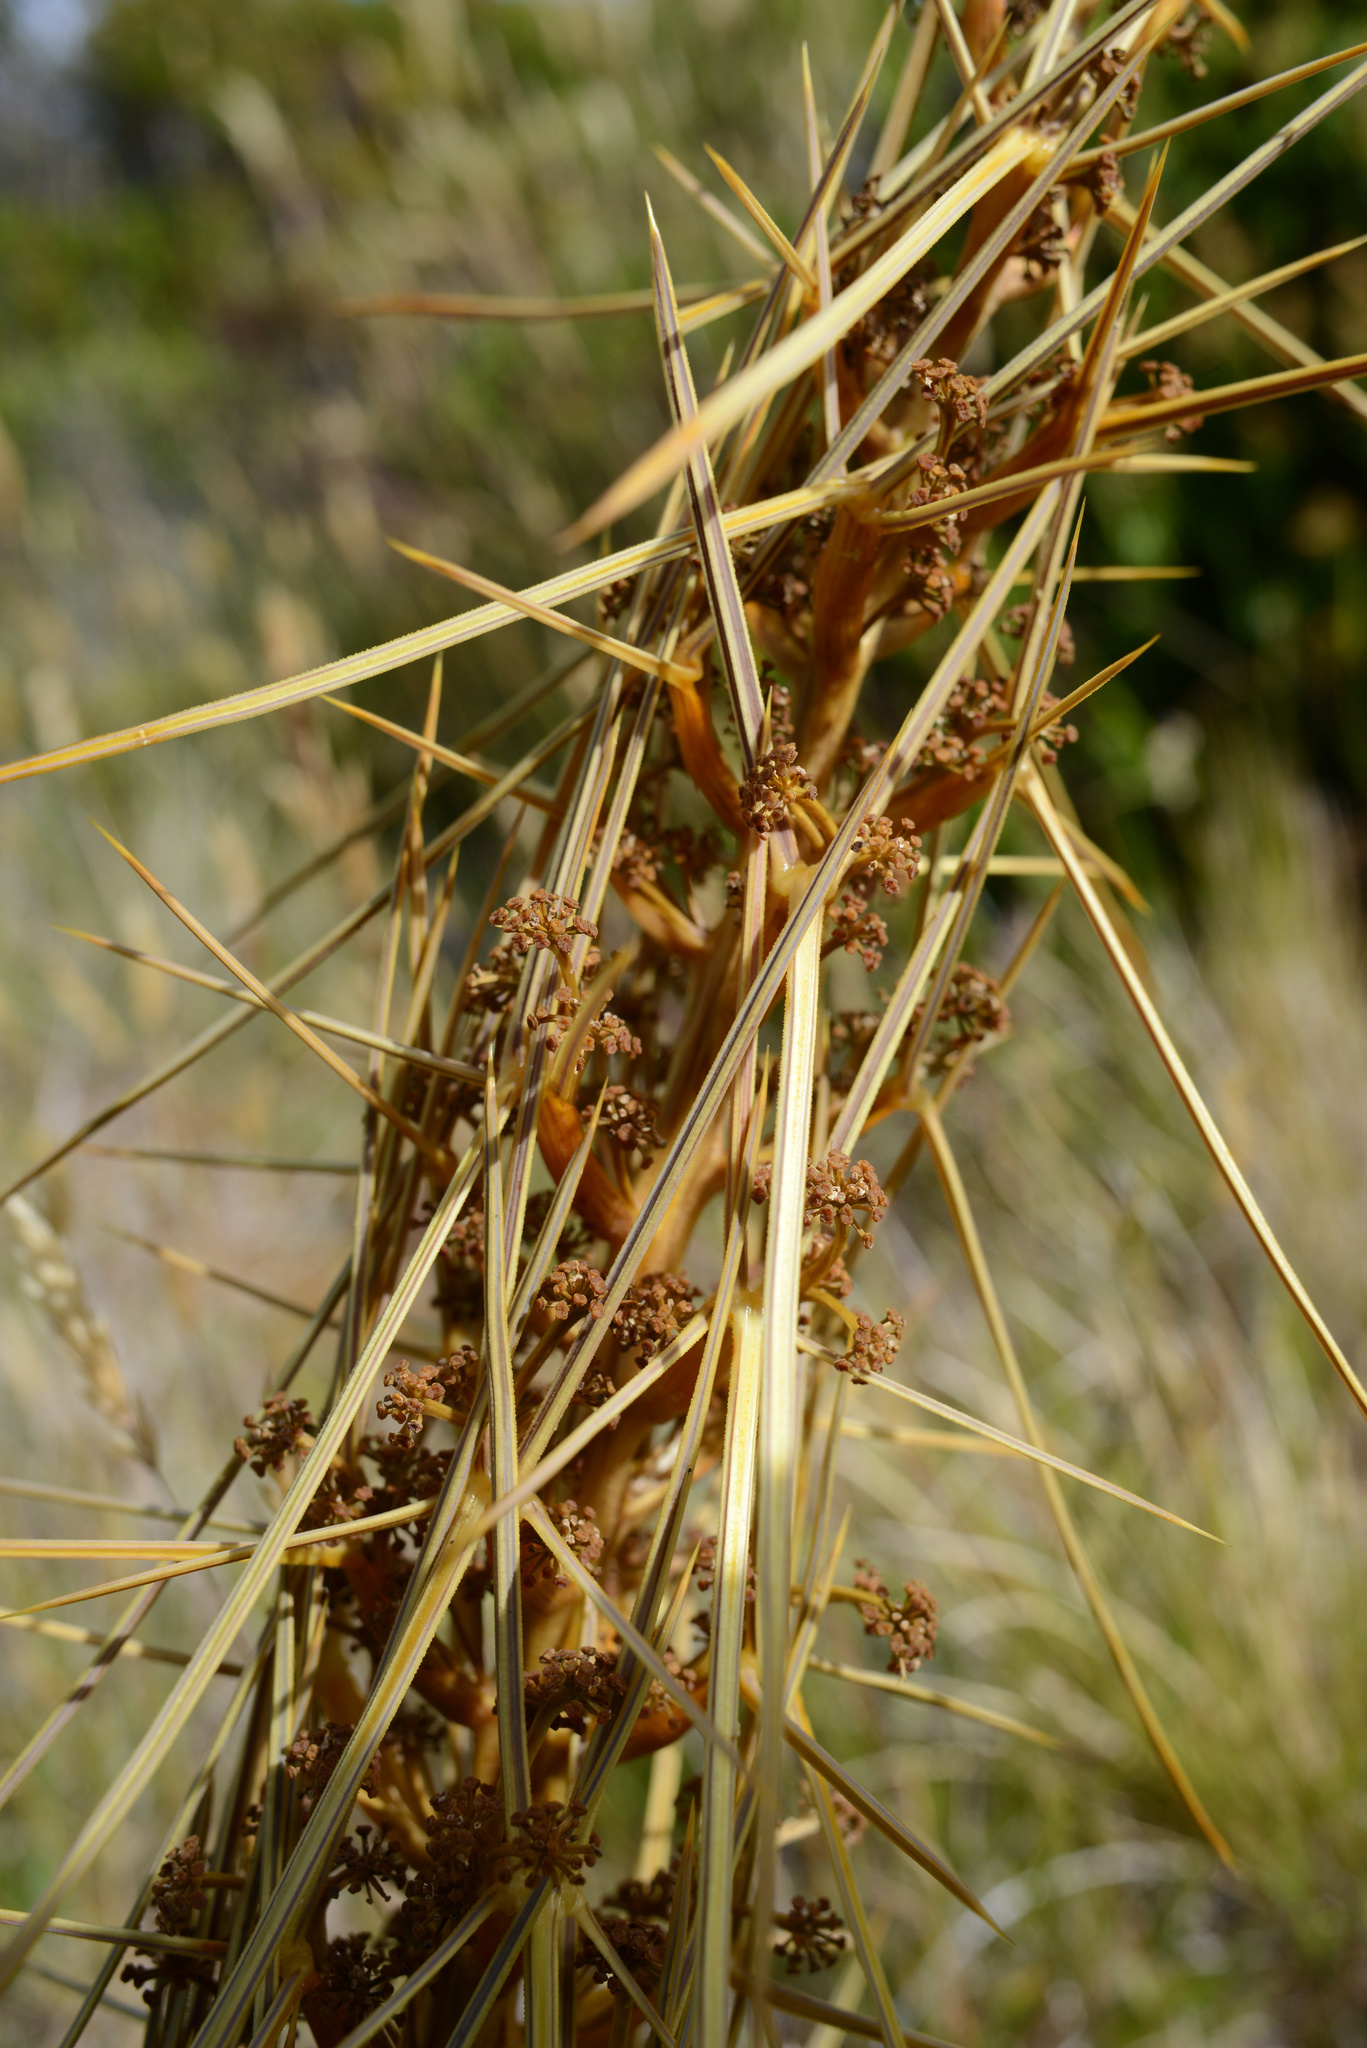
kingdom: Plantae
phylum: Tracheophyta
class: Magnoliopsida
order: Apiales
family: Apiaceae
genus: Aciphylla
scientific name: Aciphylla subflabellata
